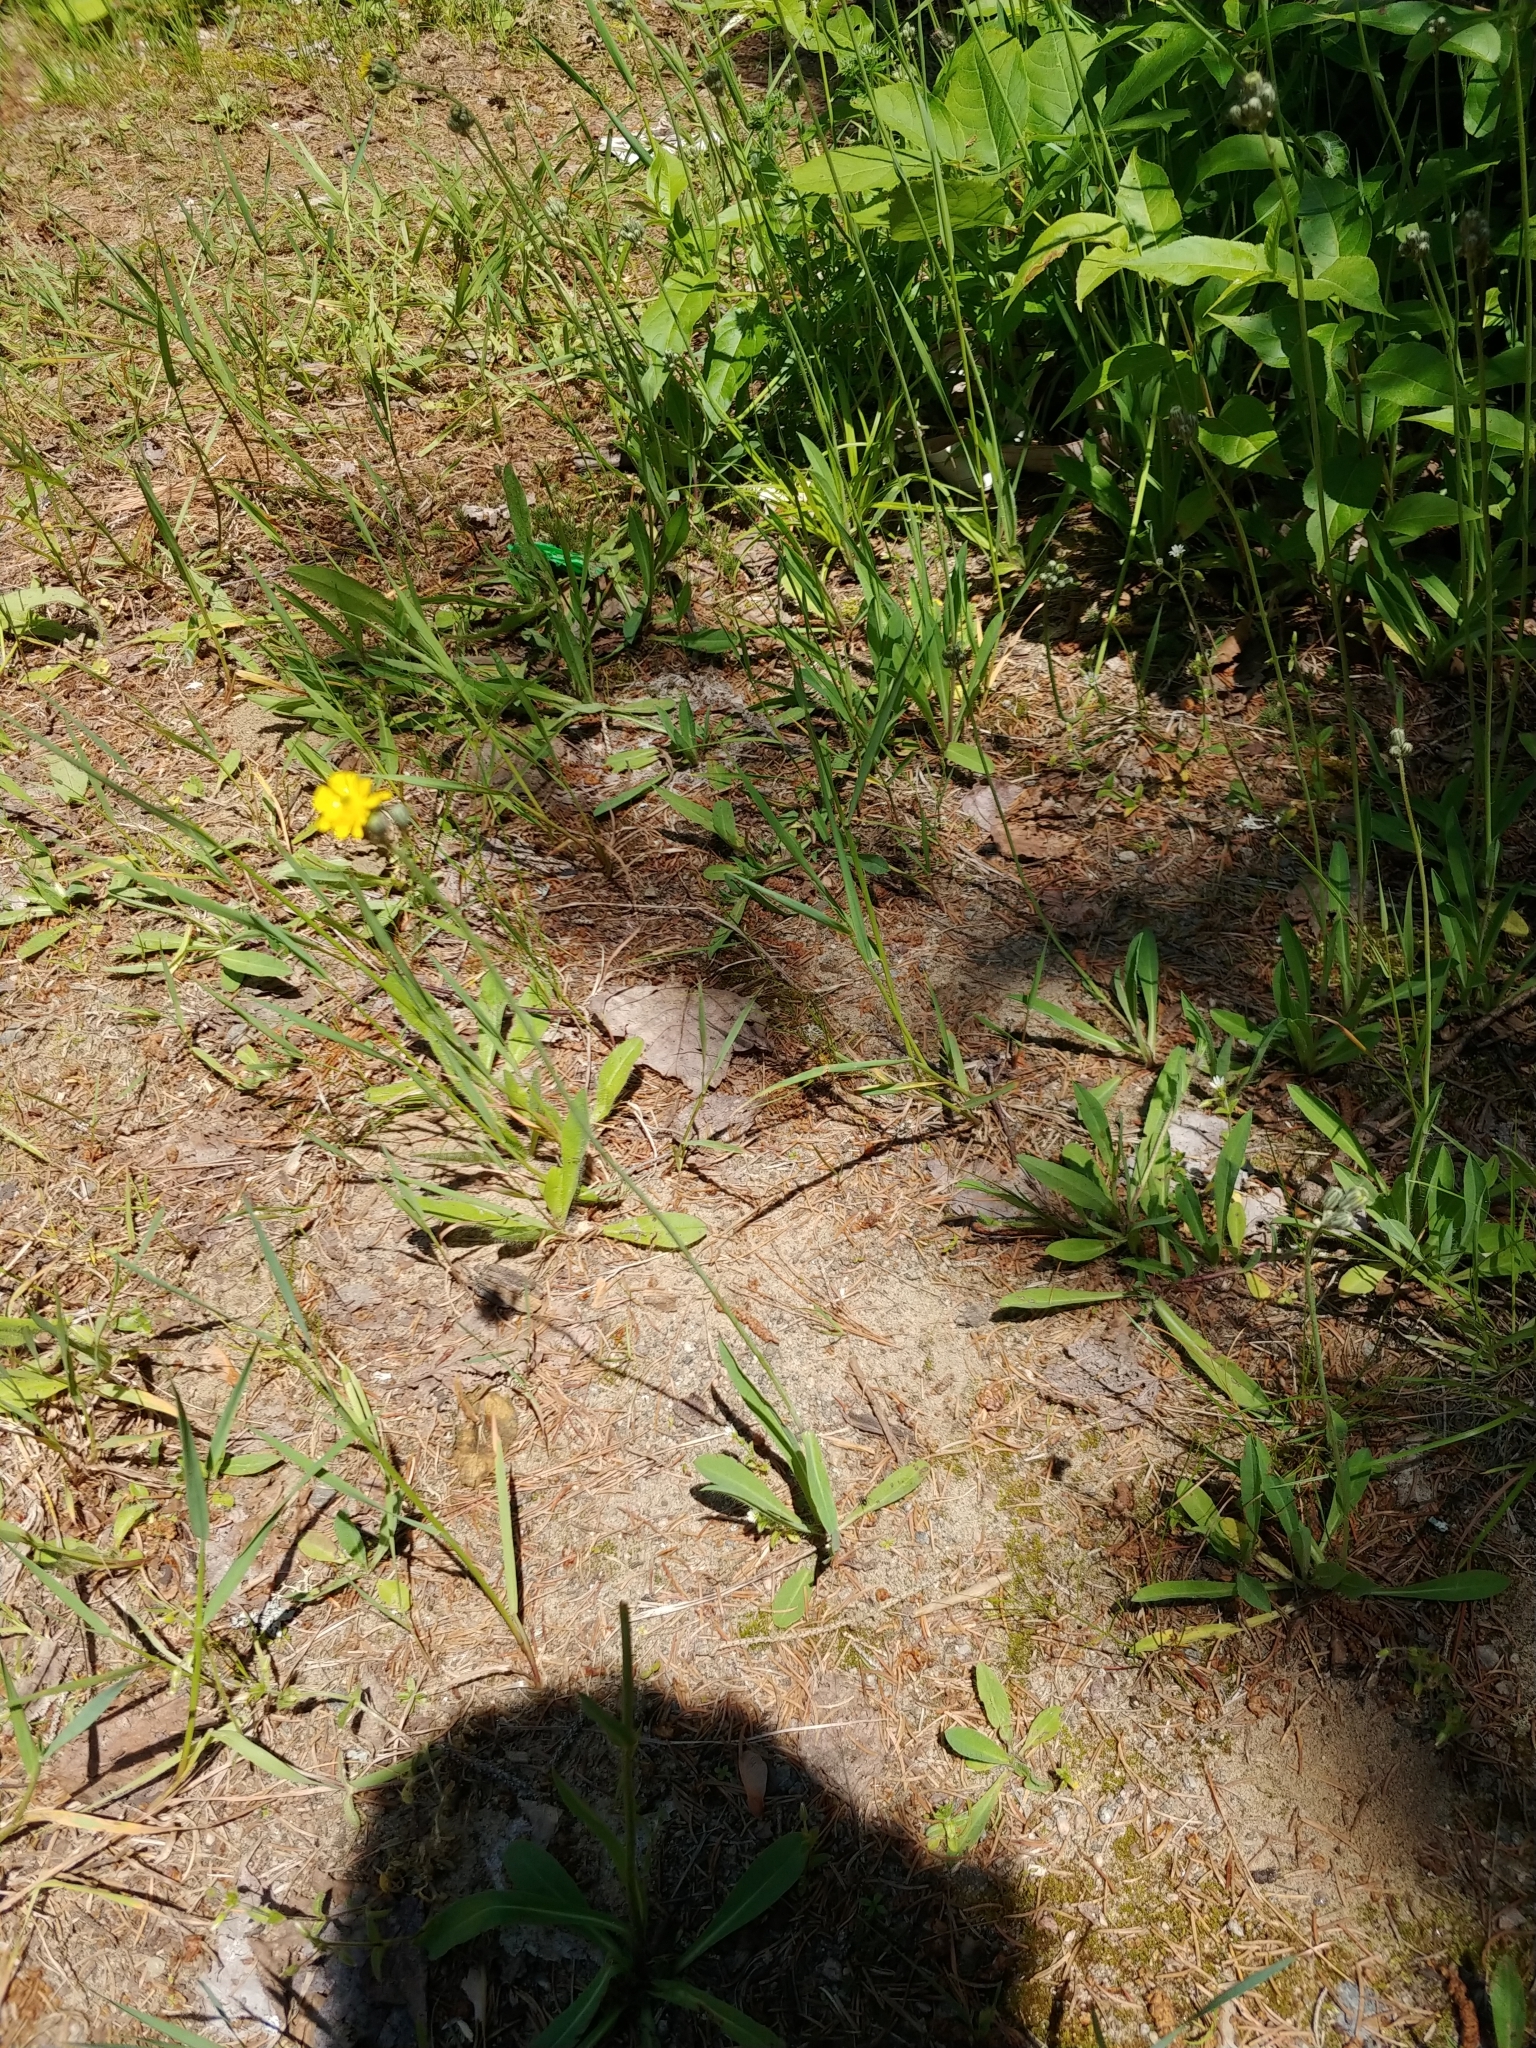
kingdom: Plantae
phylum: Tracheophyta
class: Magnoliopsida
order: Asterales
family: Asteraceae
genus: Pilosella
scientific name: Pilosella piloselloides
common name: Glaucous king-devil
